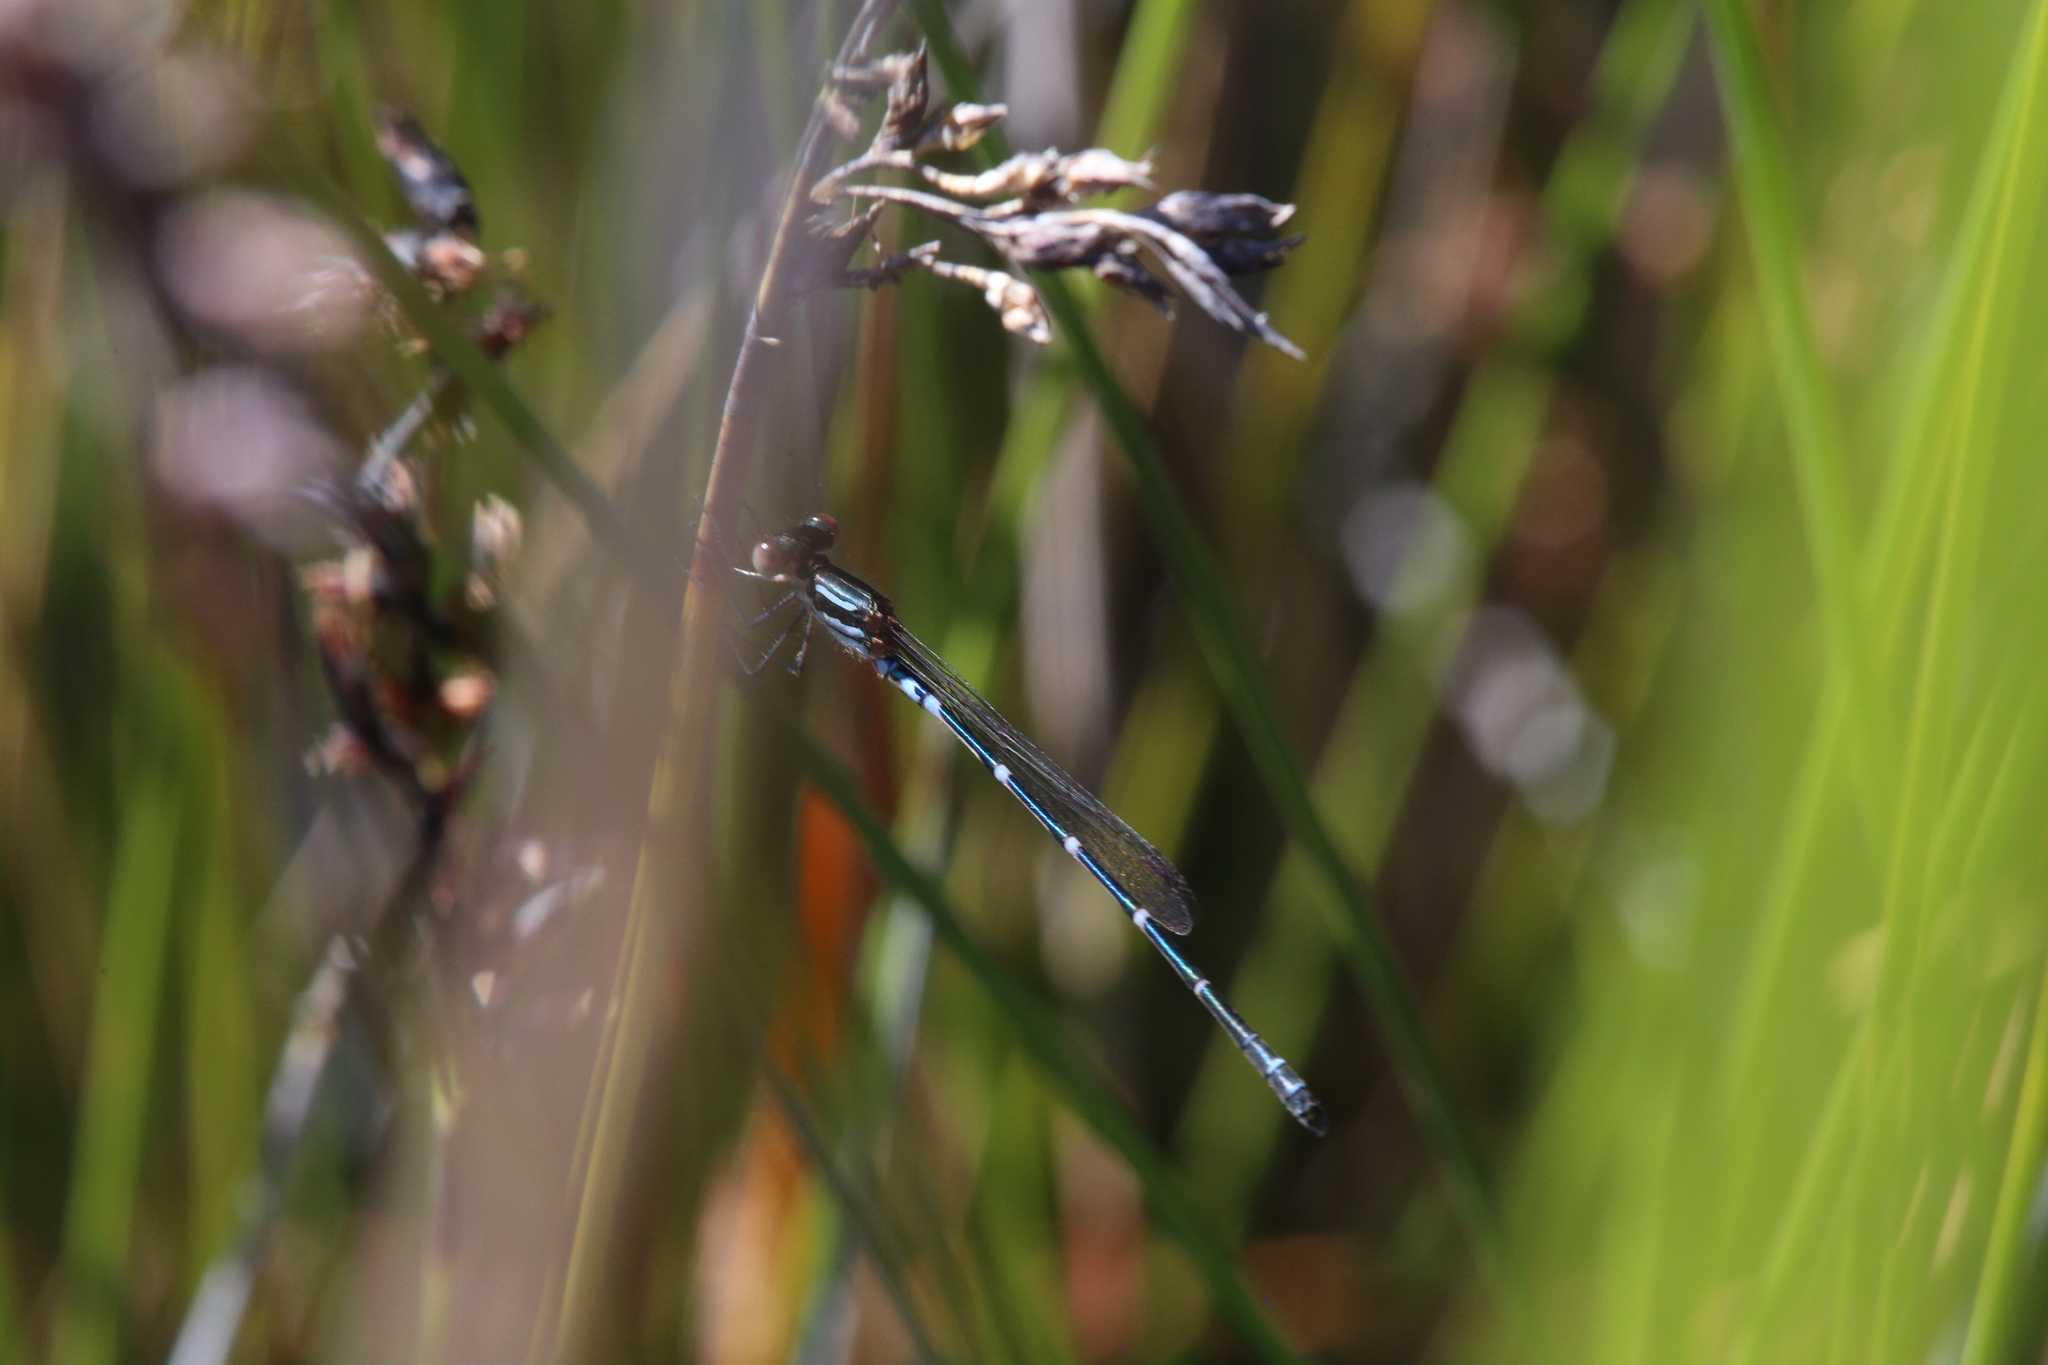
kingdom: Animalia
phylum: Arthropoda
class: Insecta
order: Odonata
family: Lestidae
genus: Austrolestes
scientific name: Austrolestes aleison
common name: Western ringtail
